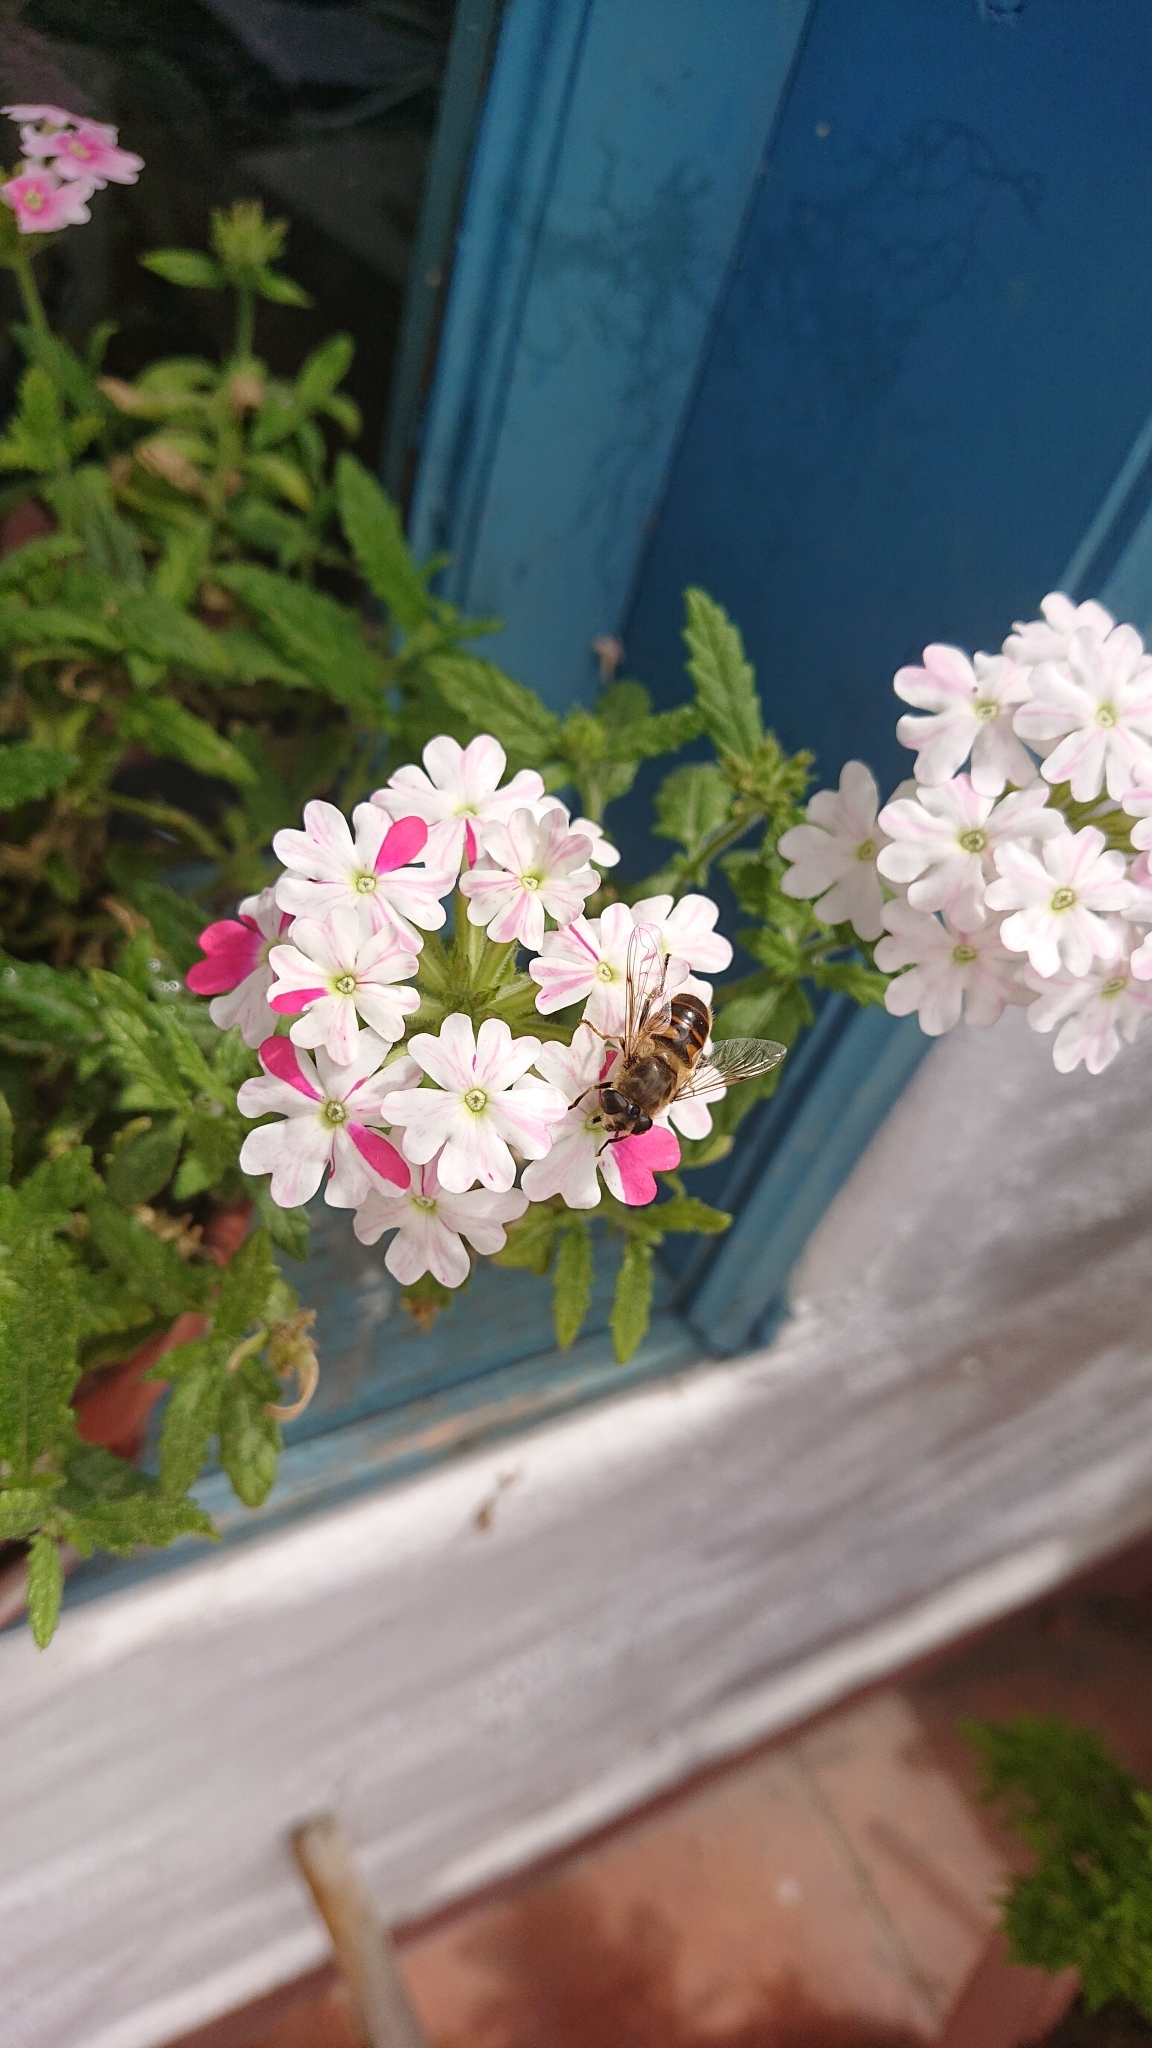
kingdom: Animalia
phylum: Arthropoda
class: Insecta
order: Diptera
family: Syrphidae
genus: Eristalis
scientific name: Eristalis tenax
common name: Drone fly
